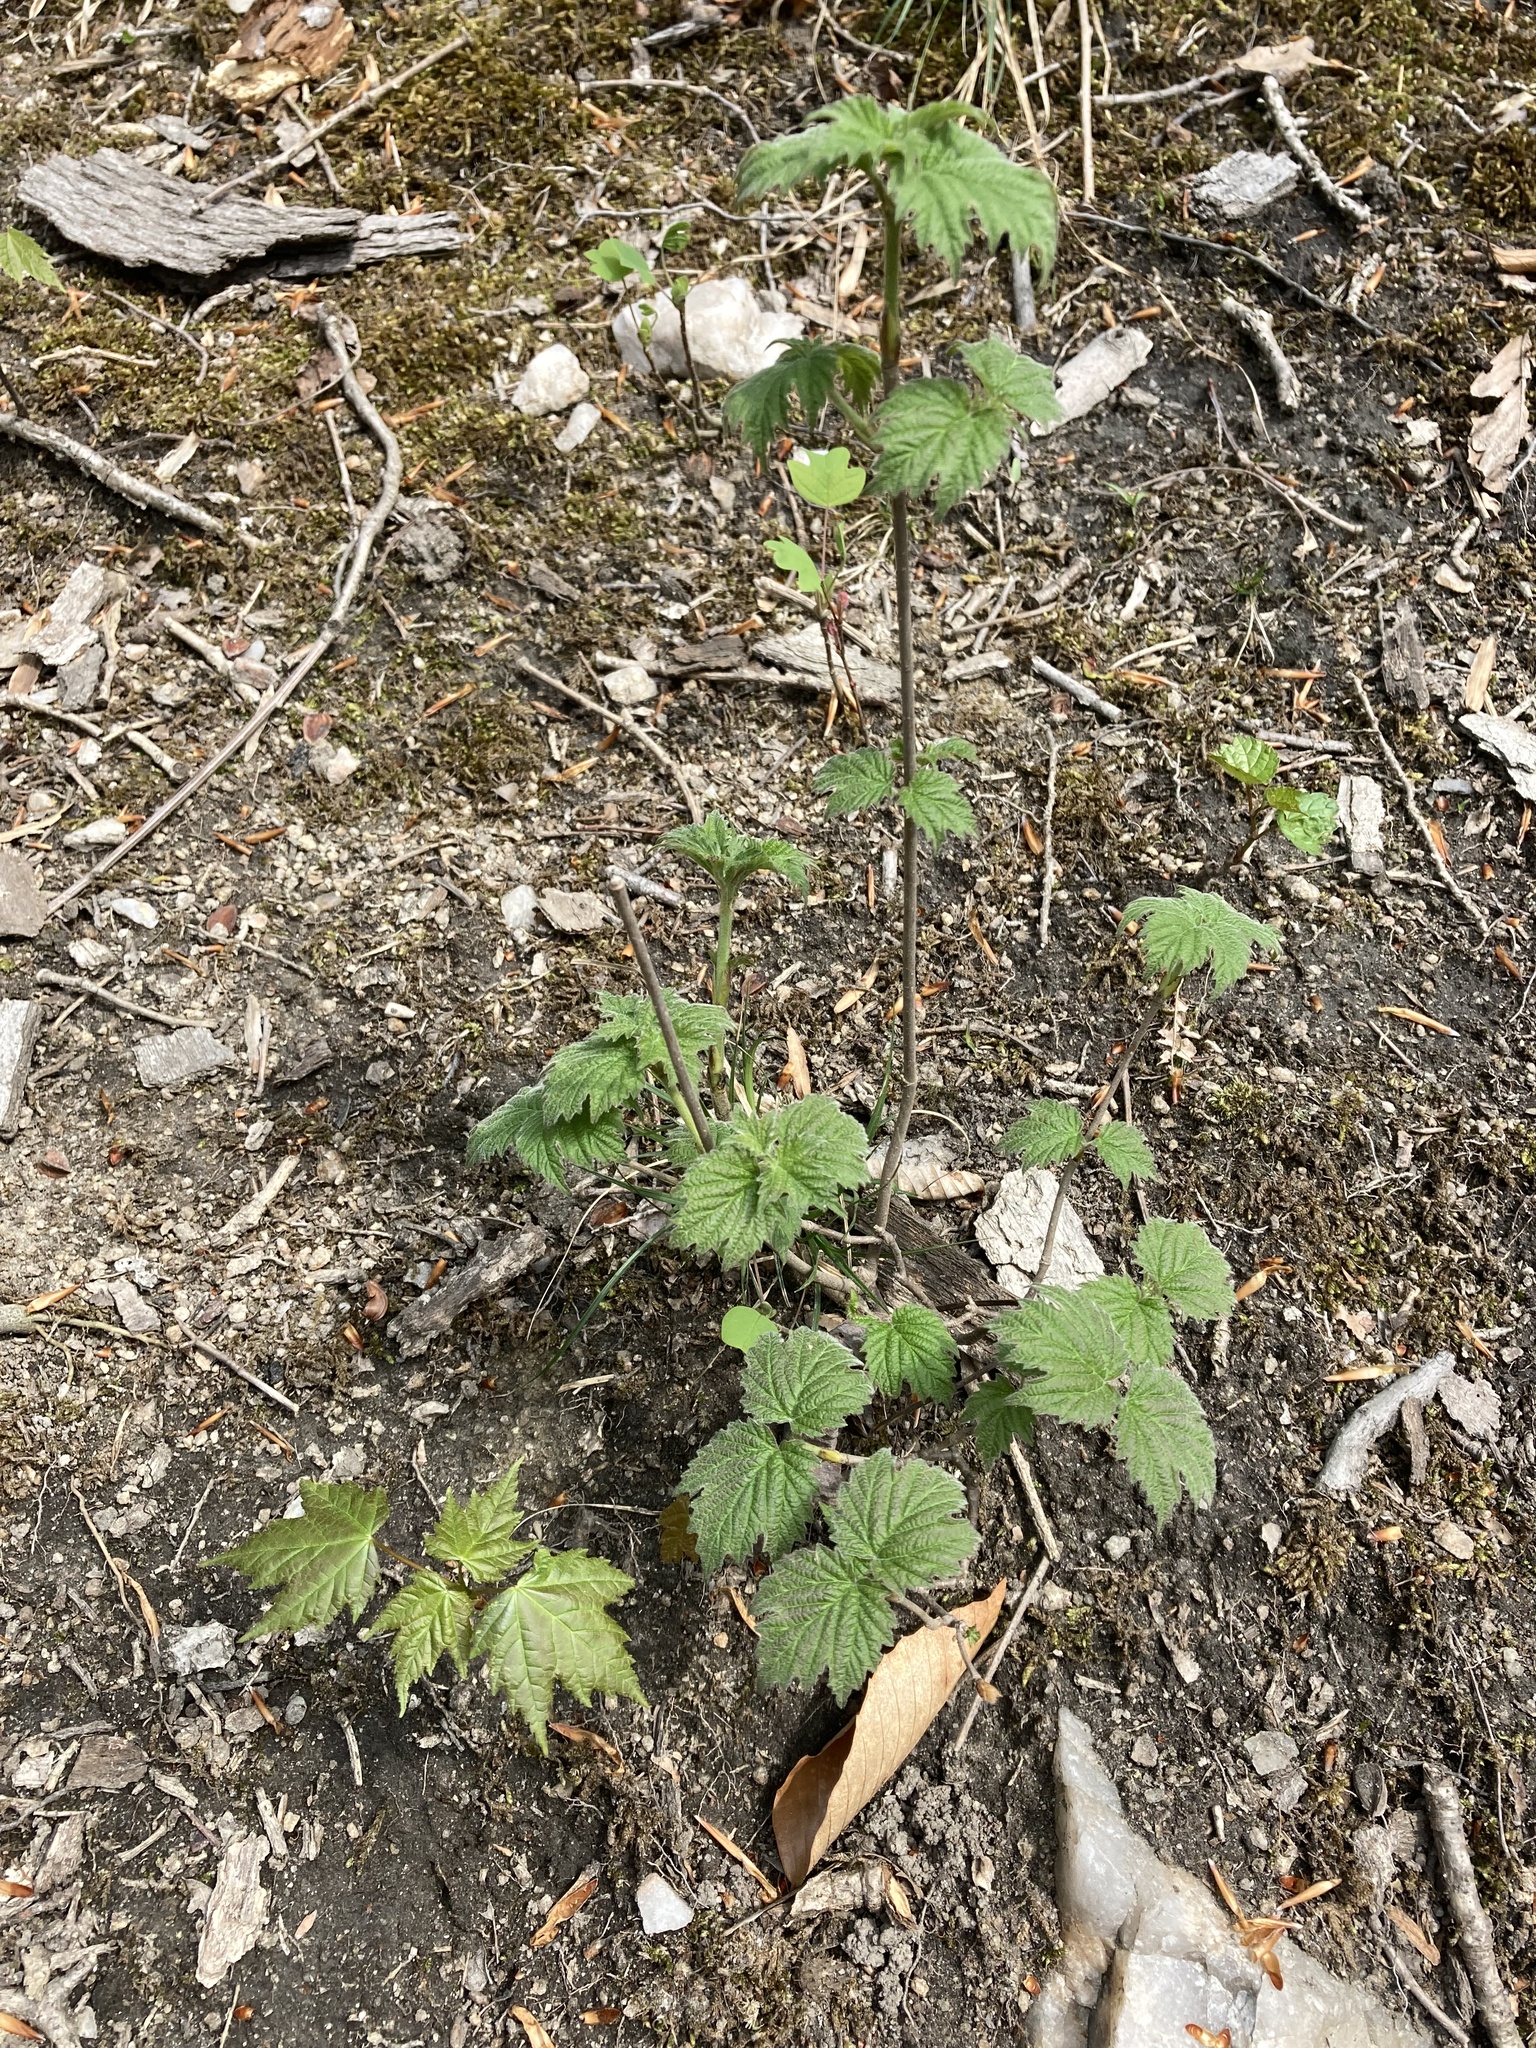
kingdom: Plantae
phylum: Tracheophyta
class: Magnoliopsida
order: Dipsacales
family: Viburnaceae
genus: Viburnum
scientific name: Viburnum acerifolium
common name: Dockmackie
